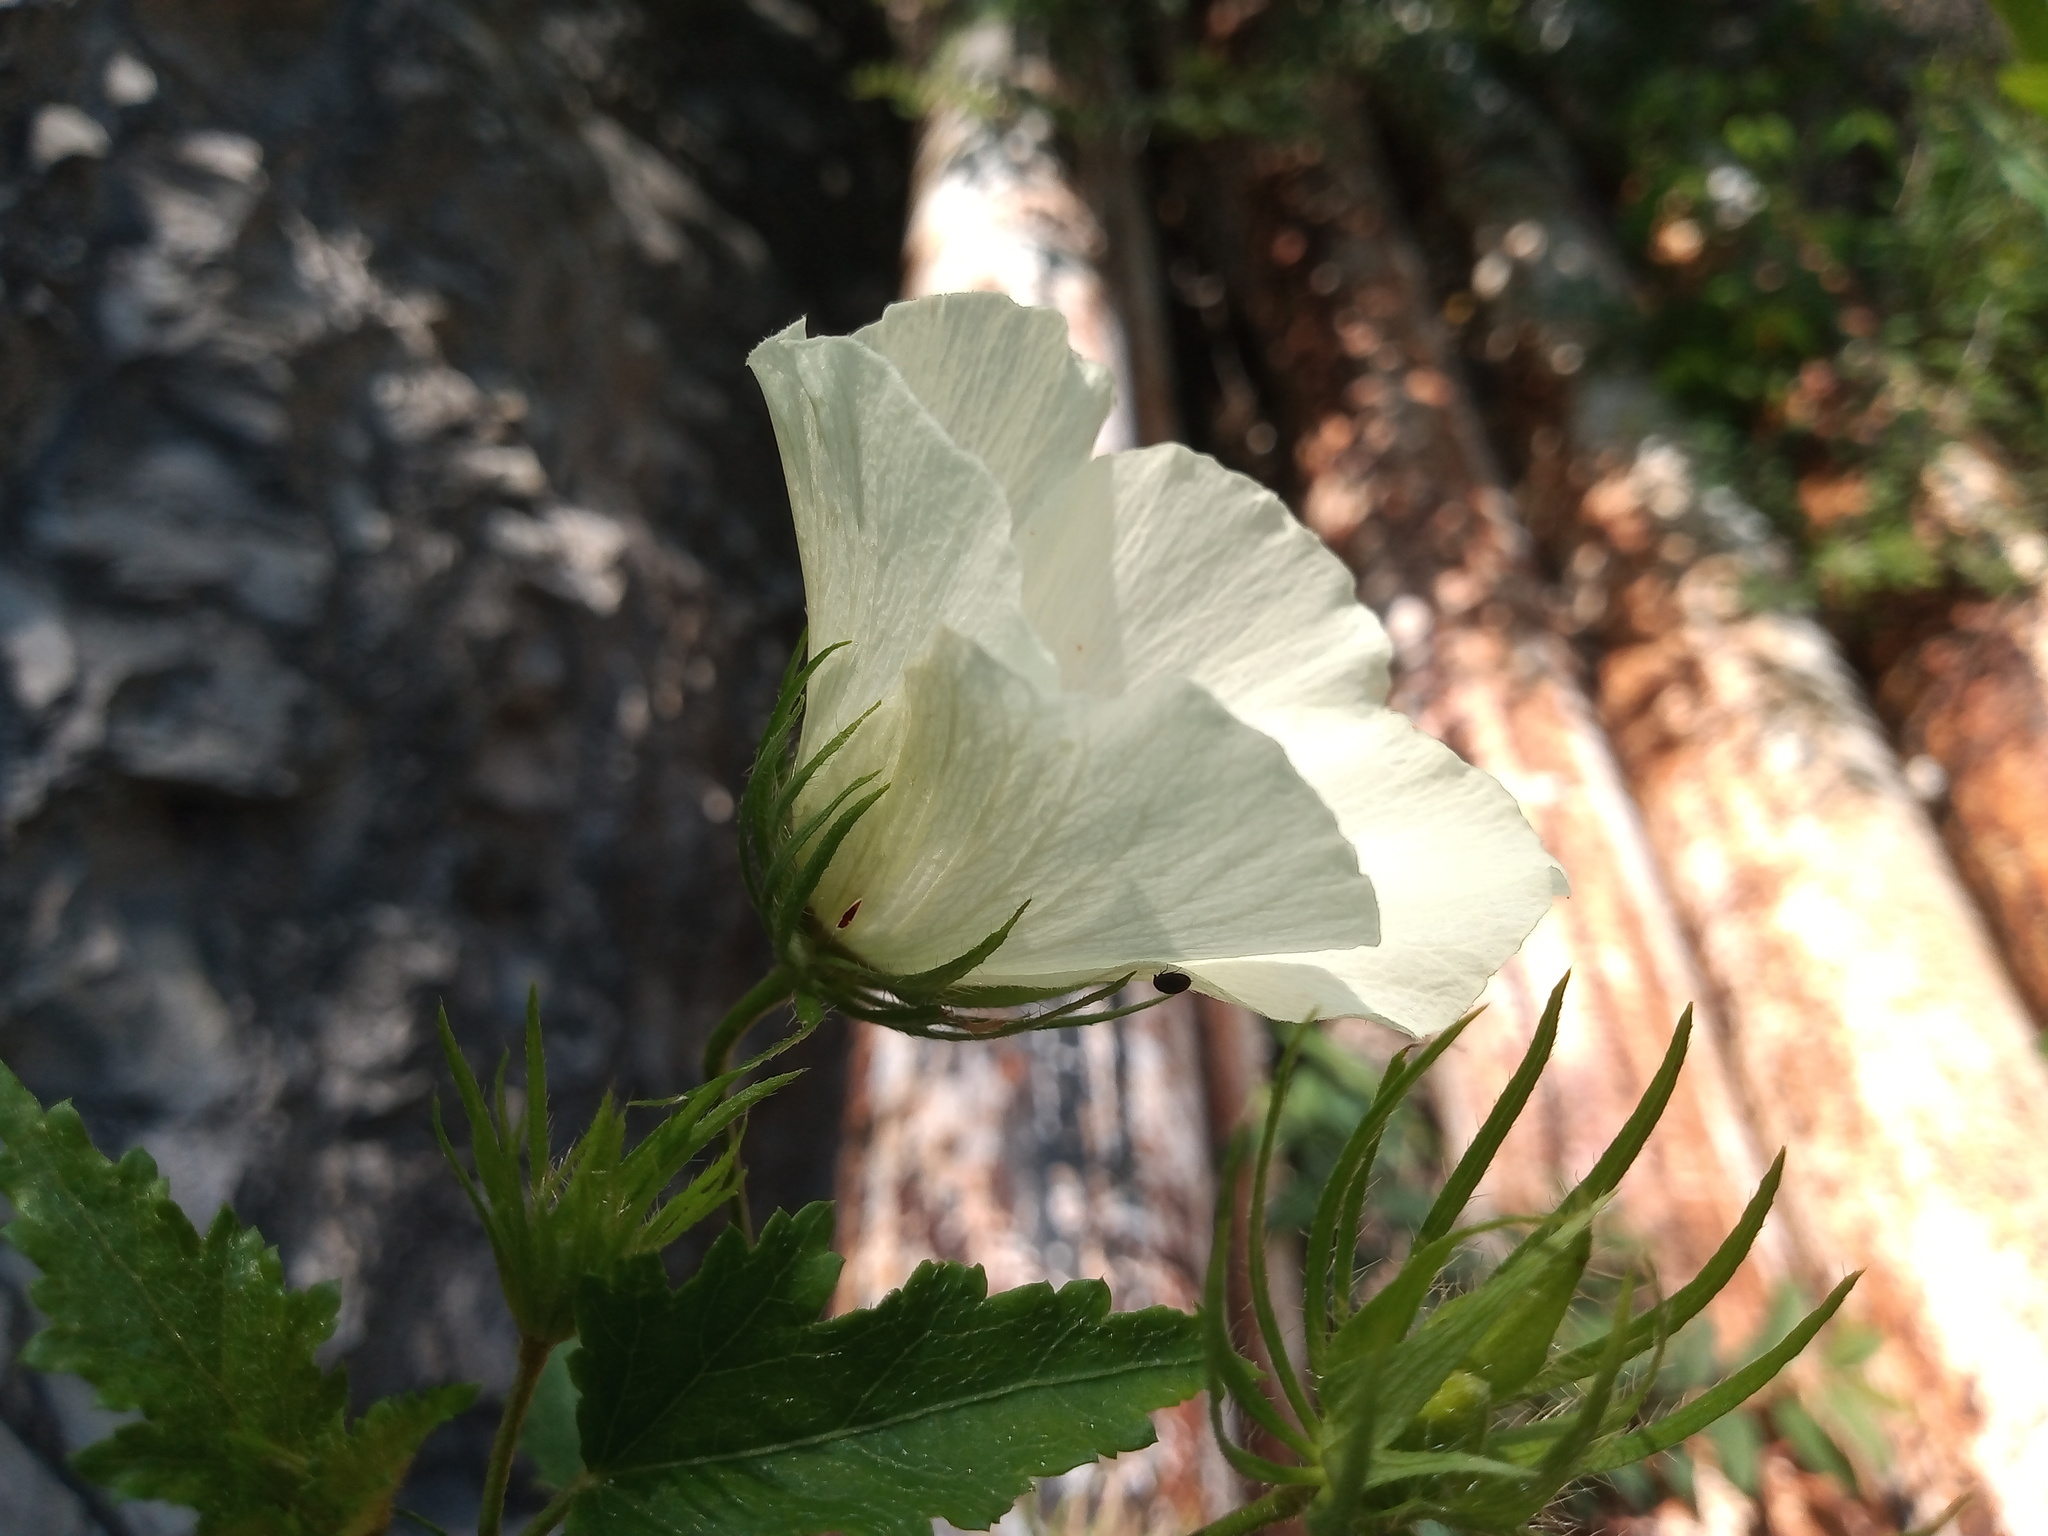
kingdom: Plantae
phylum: Tracheophyta
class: Magnoliopsida
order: Malvales
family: Malvaceae
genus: Hibiscus
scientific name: Hibiscus acicularis
